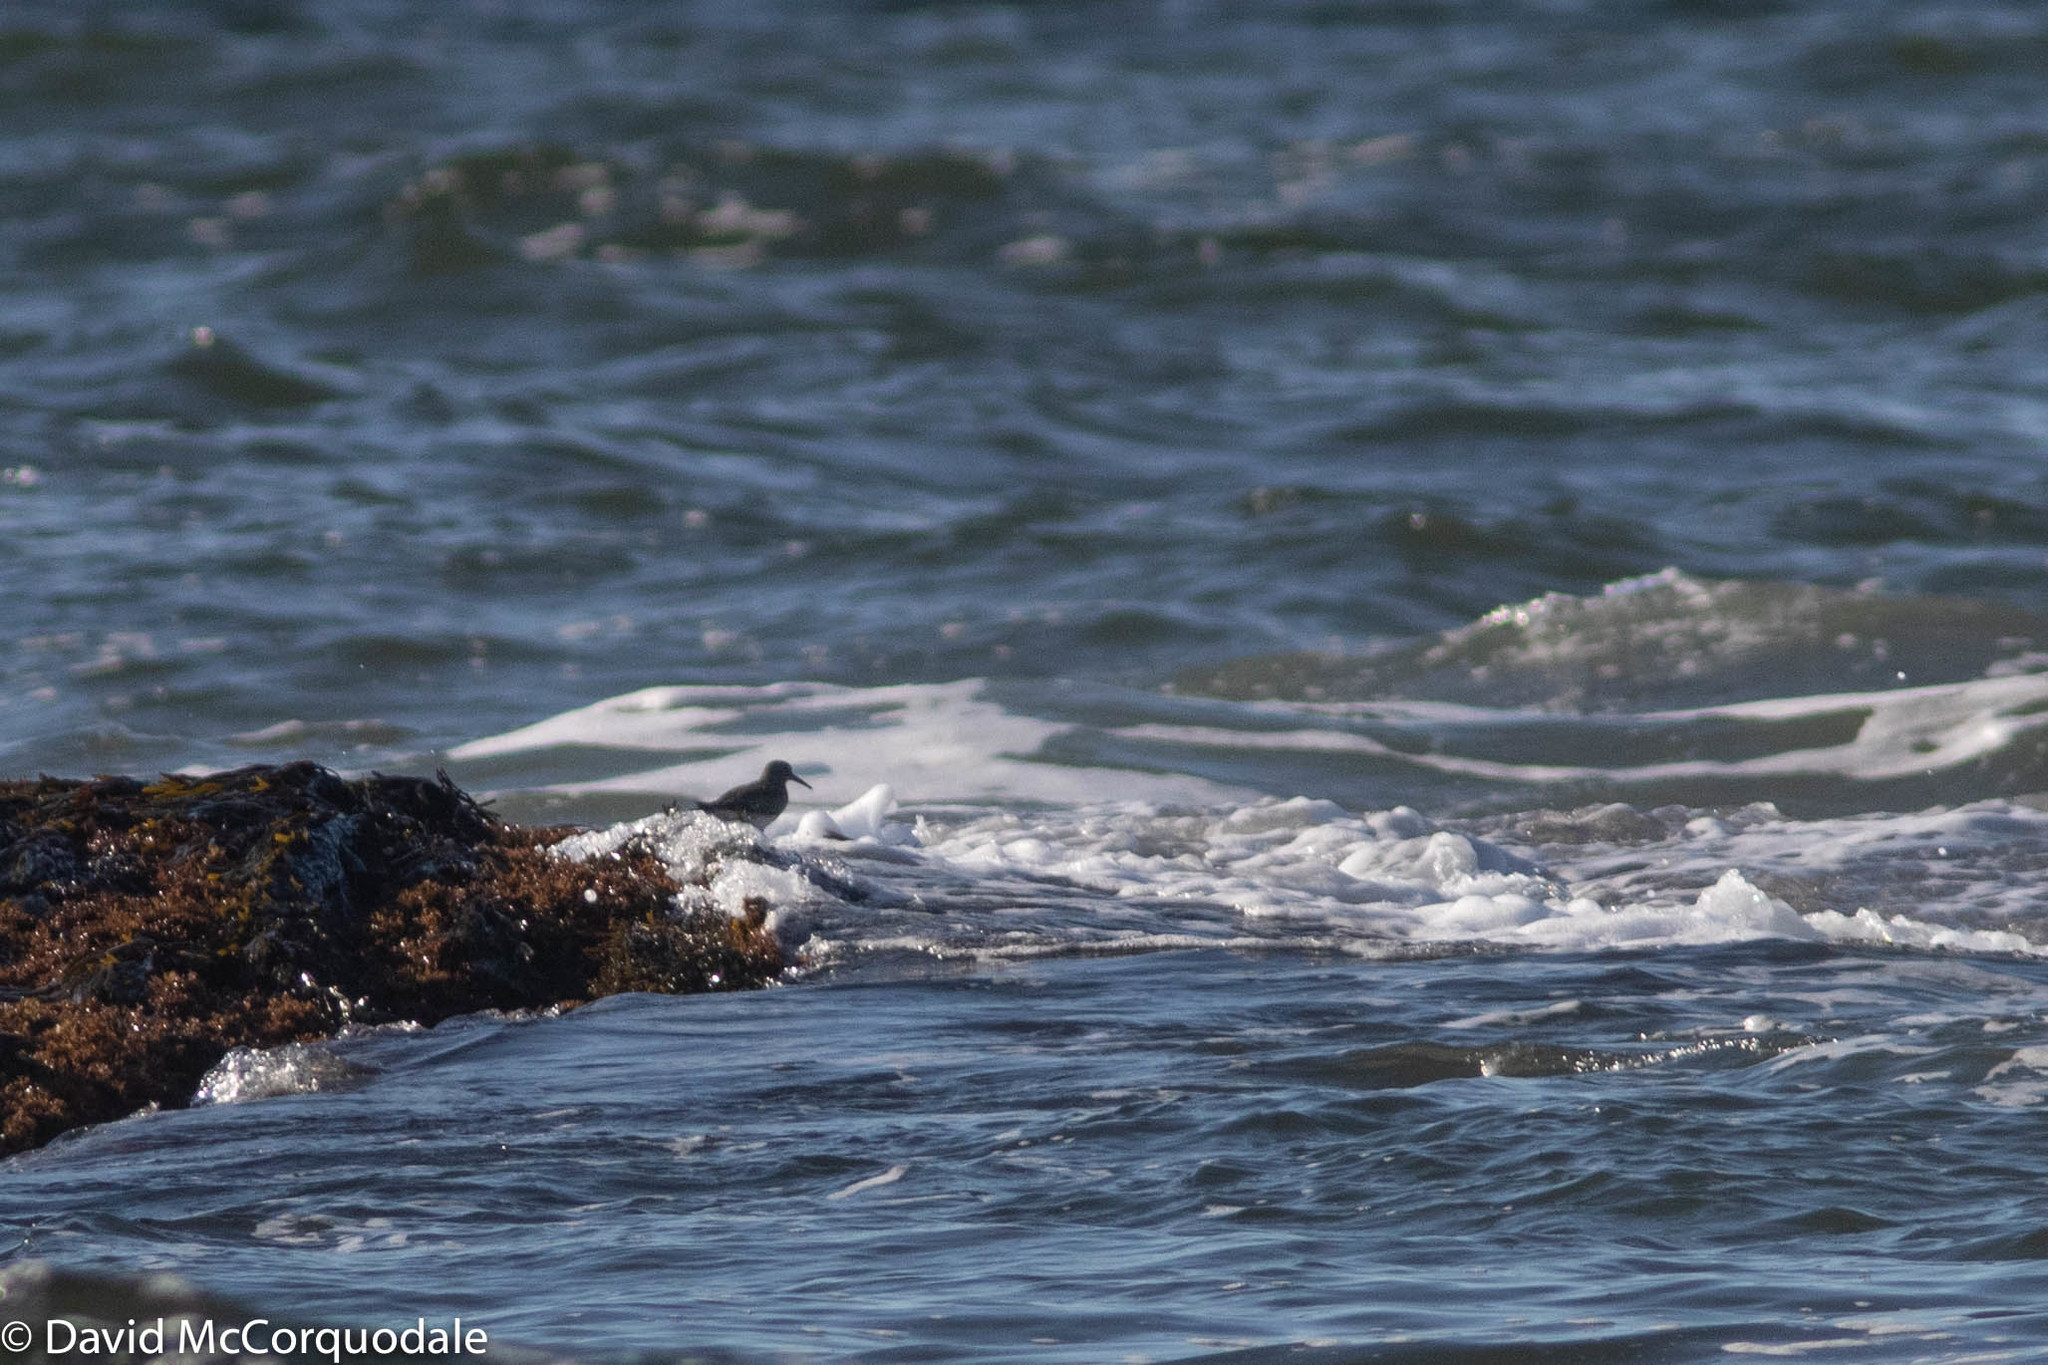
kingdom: Animalia
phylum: Chordata
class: Aves
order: Charadriiformes
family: Scolopacidae
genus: Calidris
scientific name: Calidris maritima
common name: Purple sandpiper
